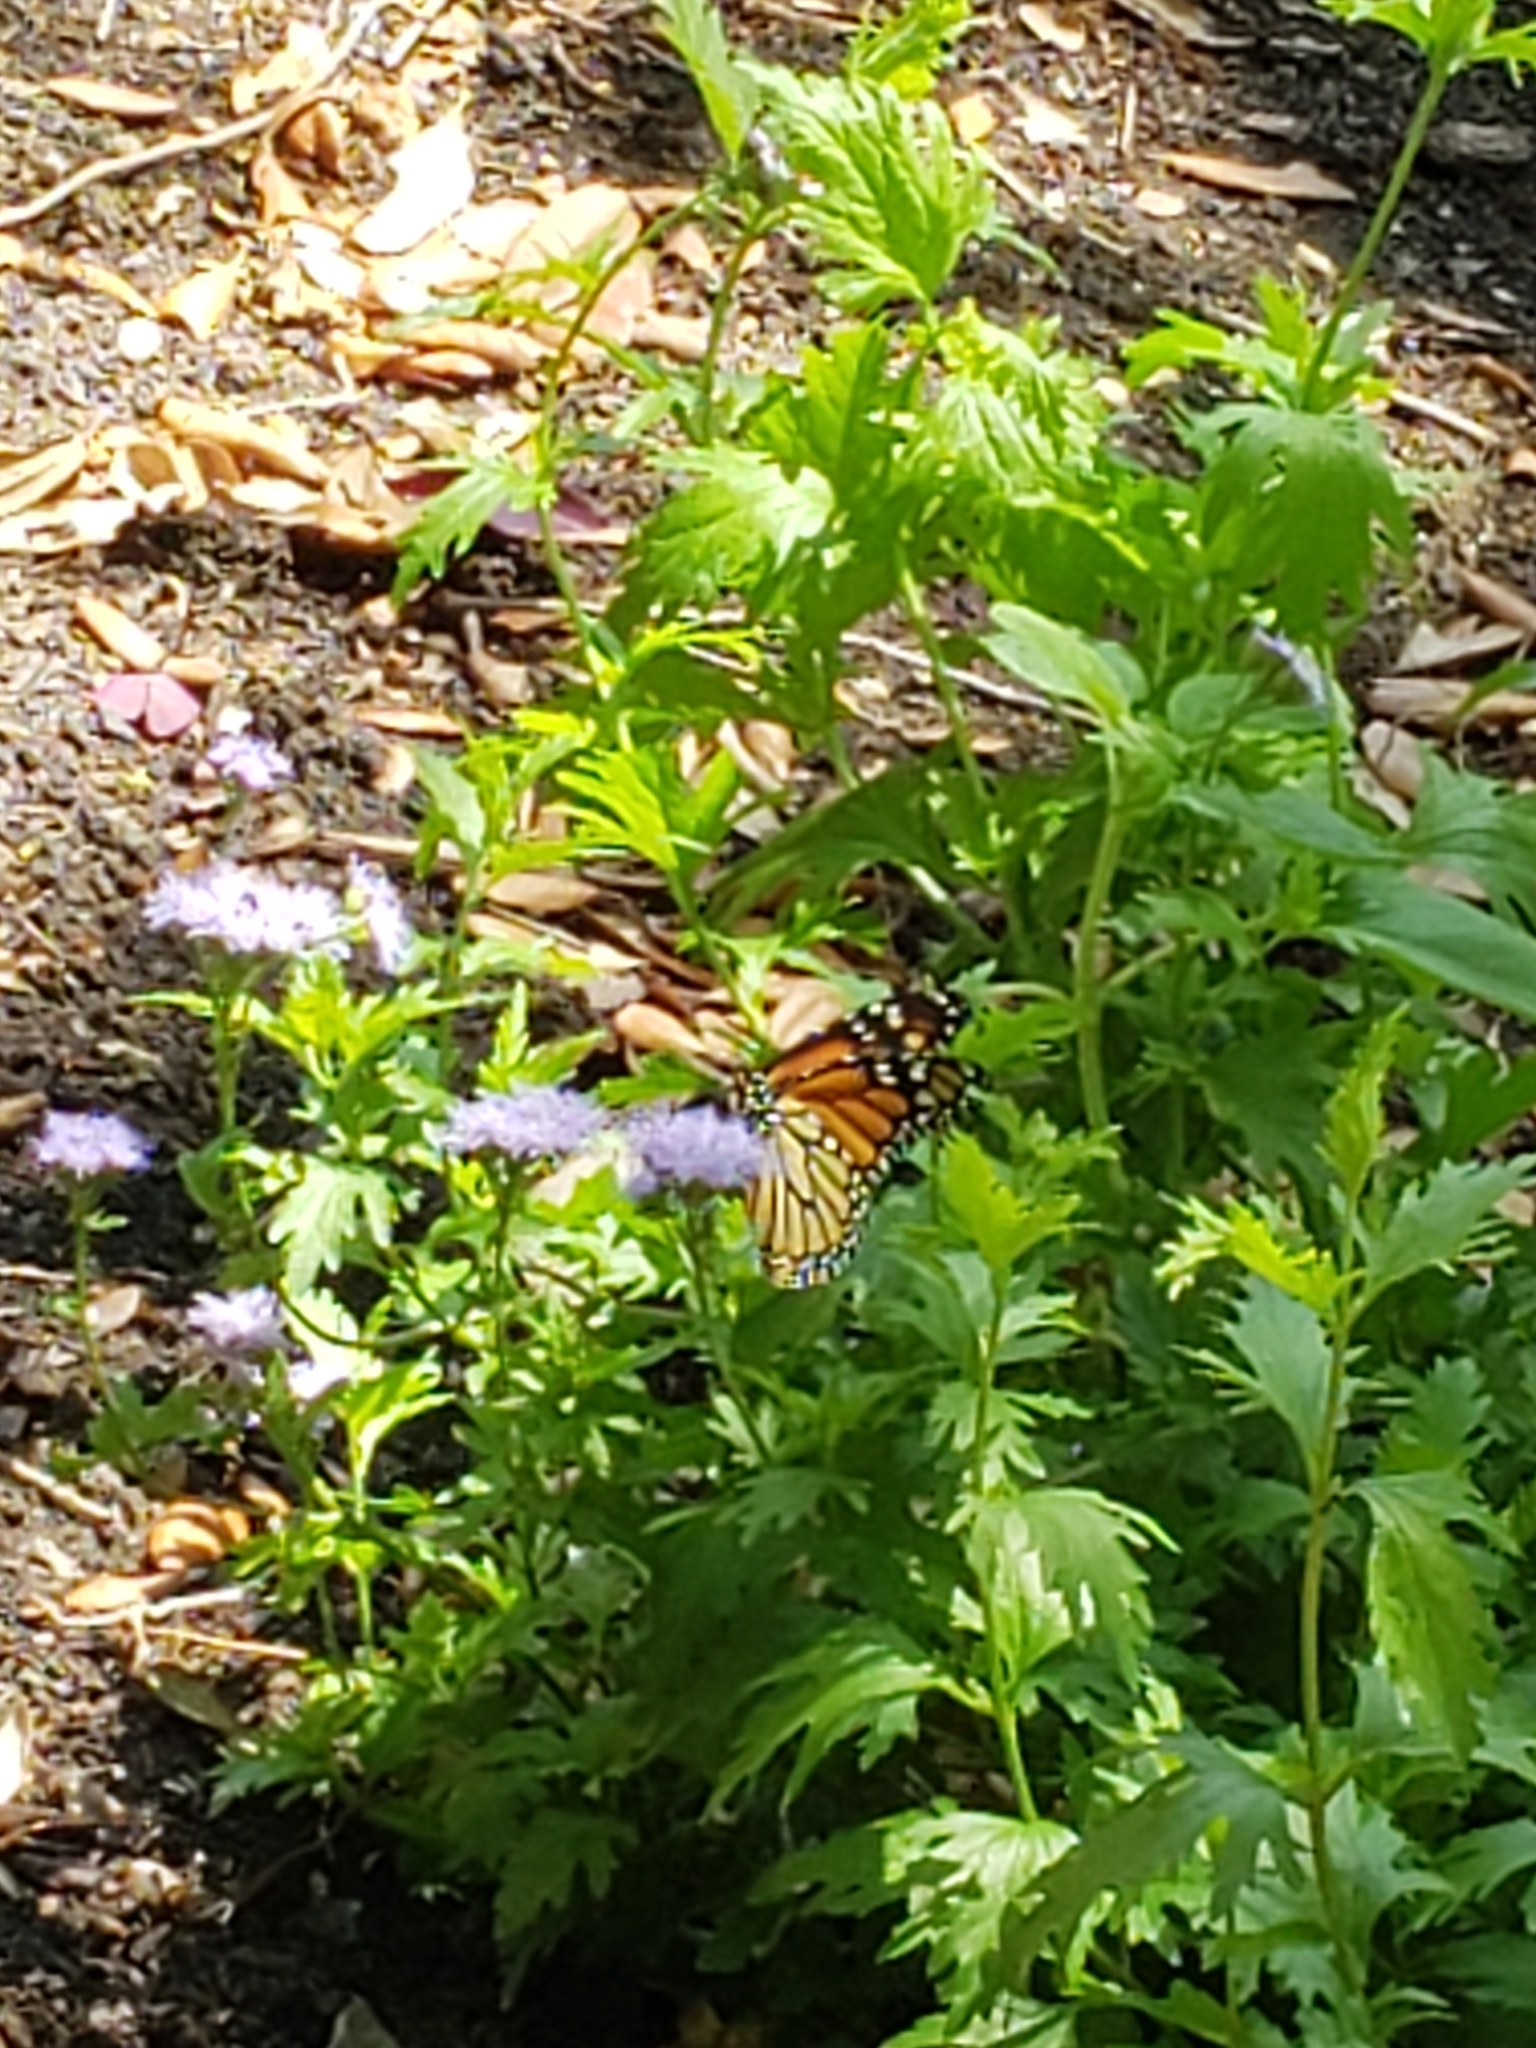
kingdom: Animalia
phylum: Arthropoda
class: Insecta
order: Lepidoptera
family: Nymphalidae
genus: Danaus
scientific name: Danaus plexippus
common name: Monarch
